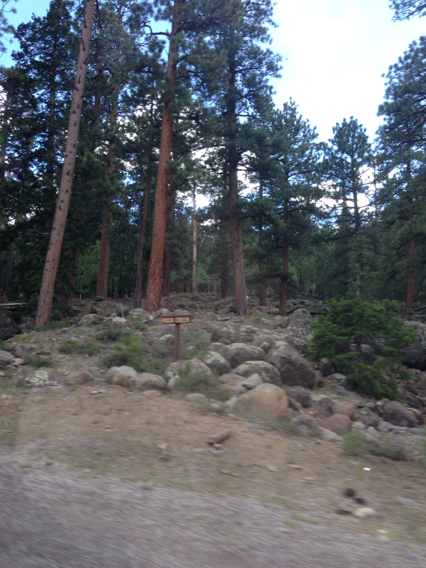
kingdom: Plantae
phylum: Tracheophyta
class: Pinopsida
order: Pinales
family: Pinaceae
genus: Pinus
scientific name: Pinus ponderosa
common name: Western yellow-pine
